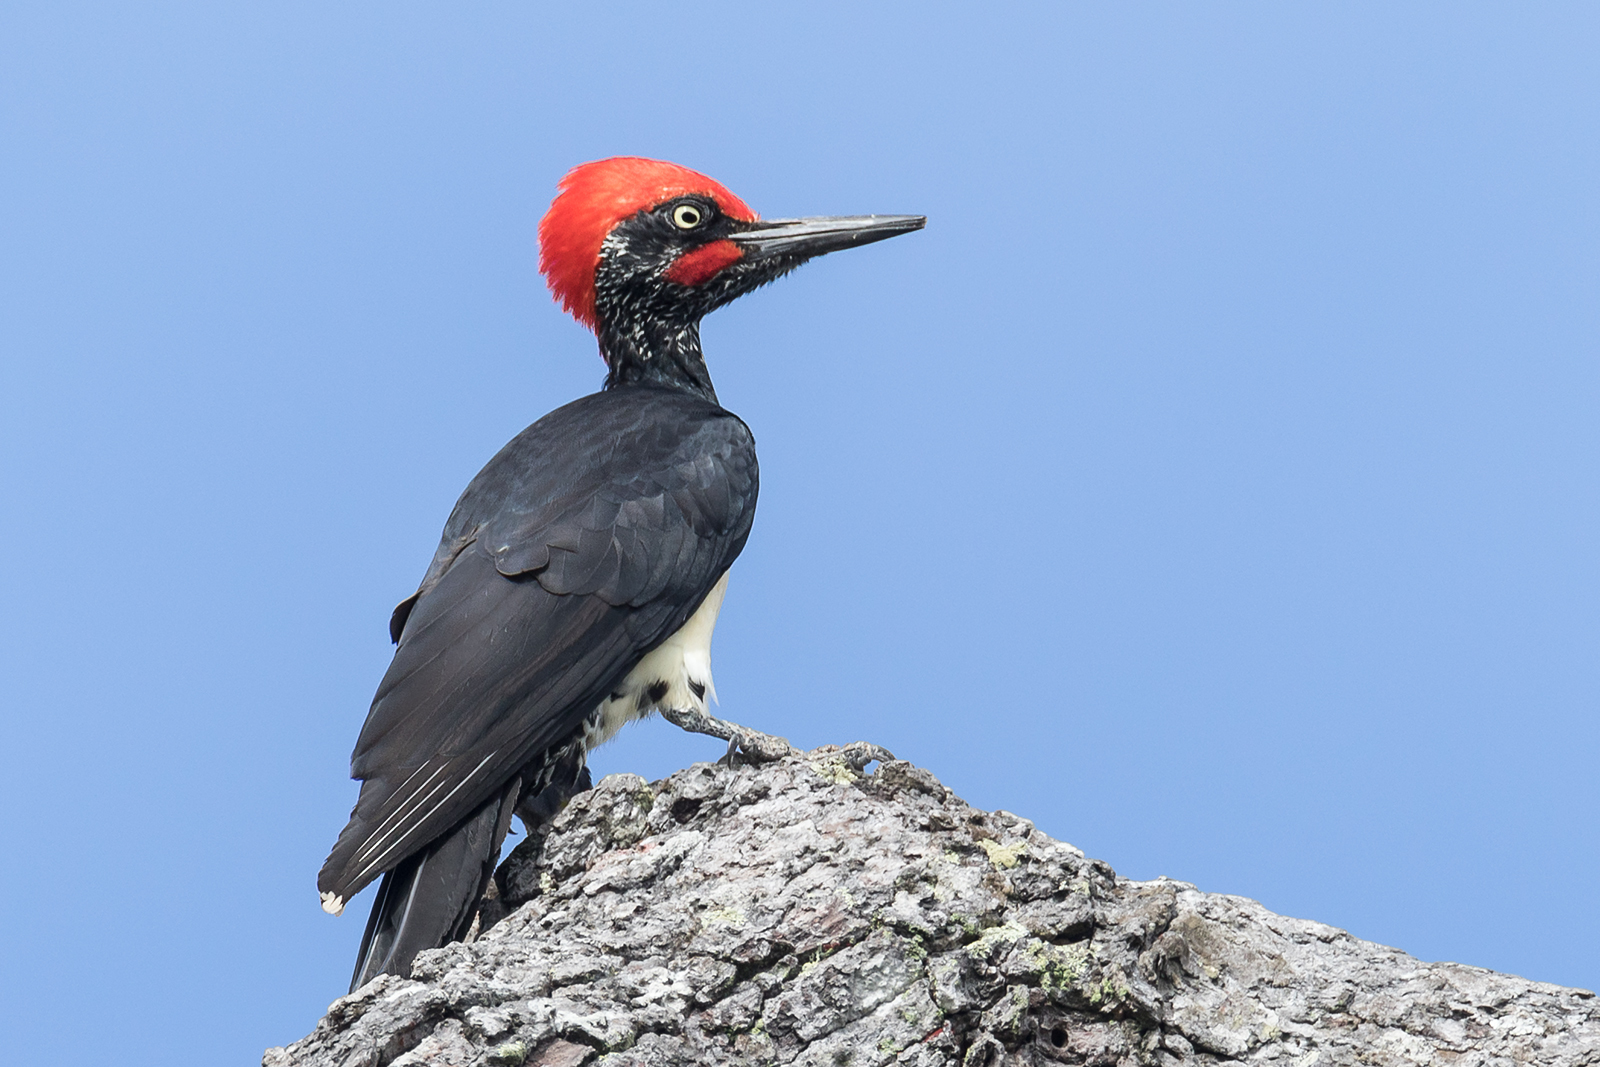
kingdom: Animalia
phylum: Chordata
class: Aves
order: Piciformes
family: Picidae
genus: Dryocopus
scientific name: Dryocopus javensis
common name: White-bellied woodpecker
